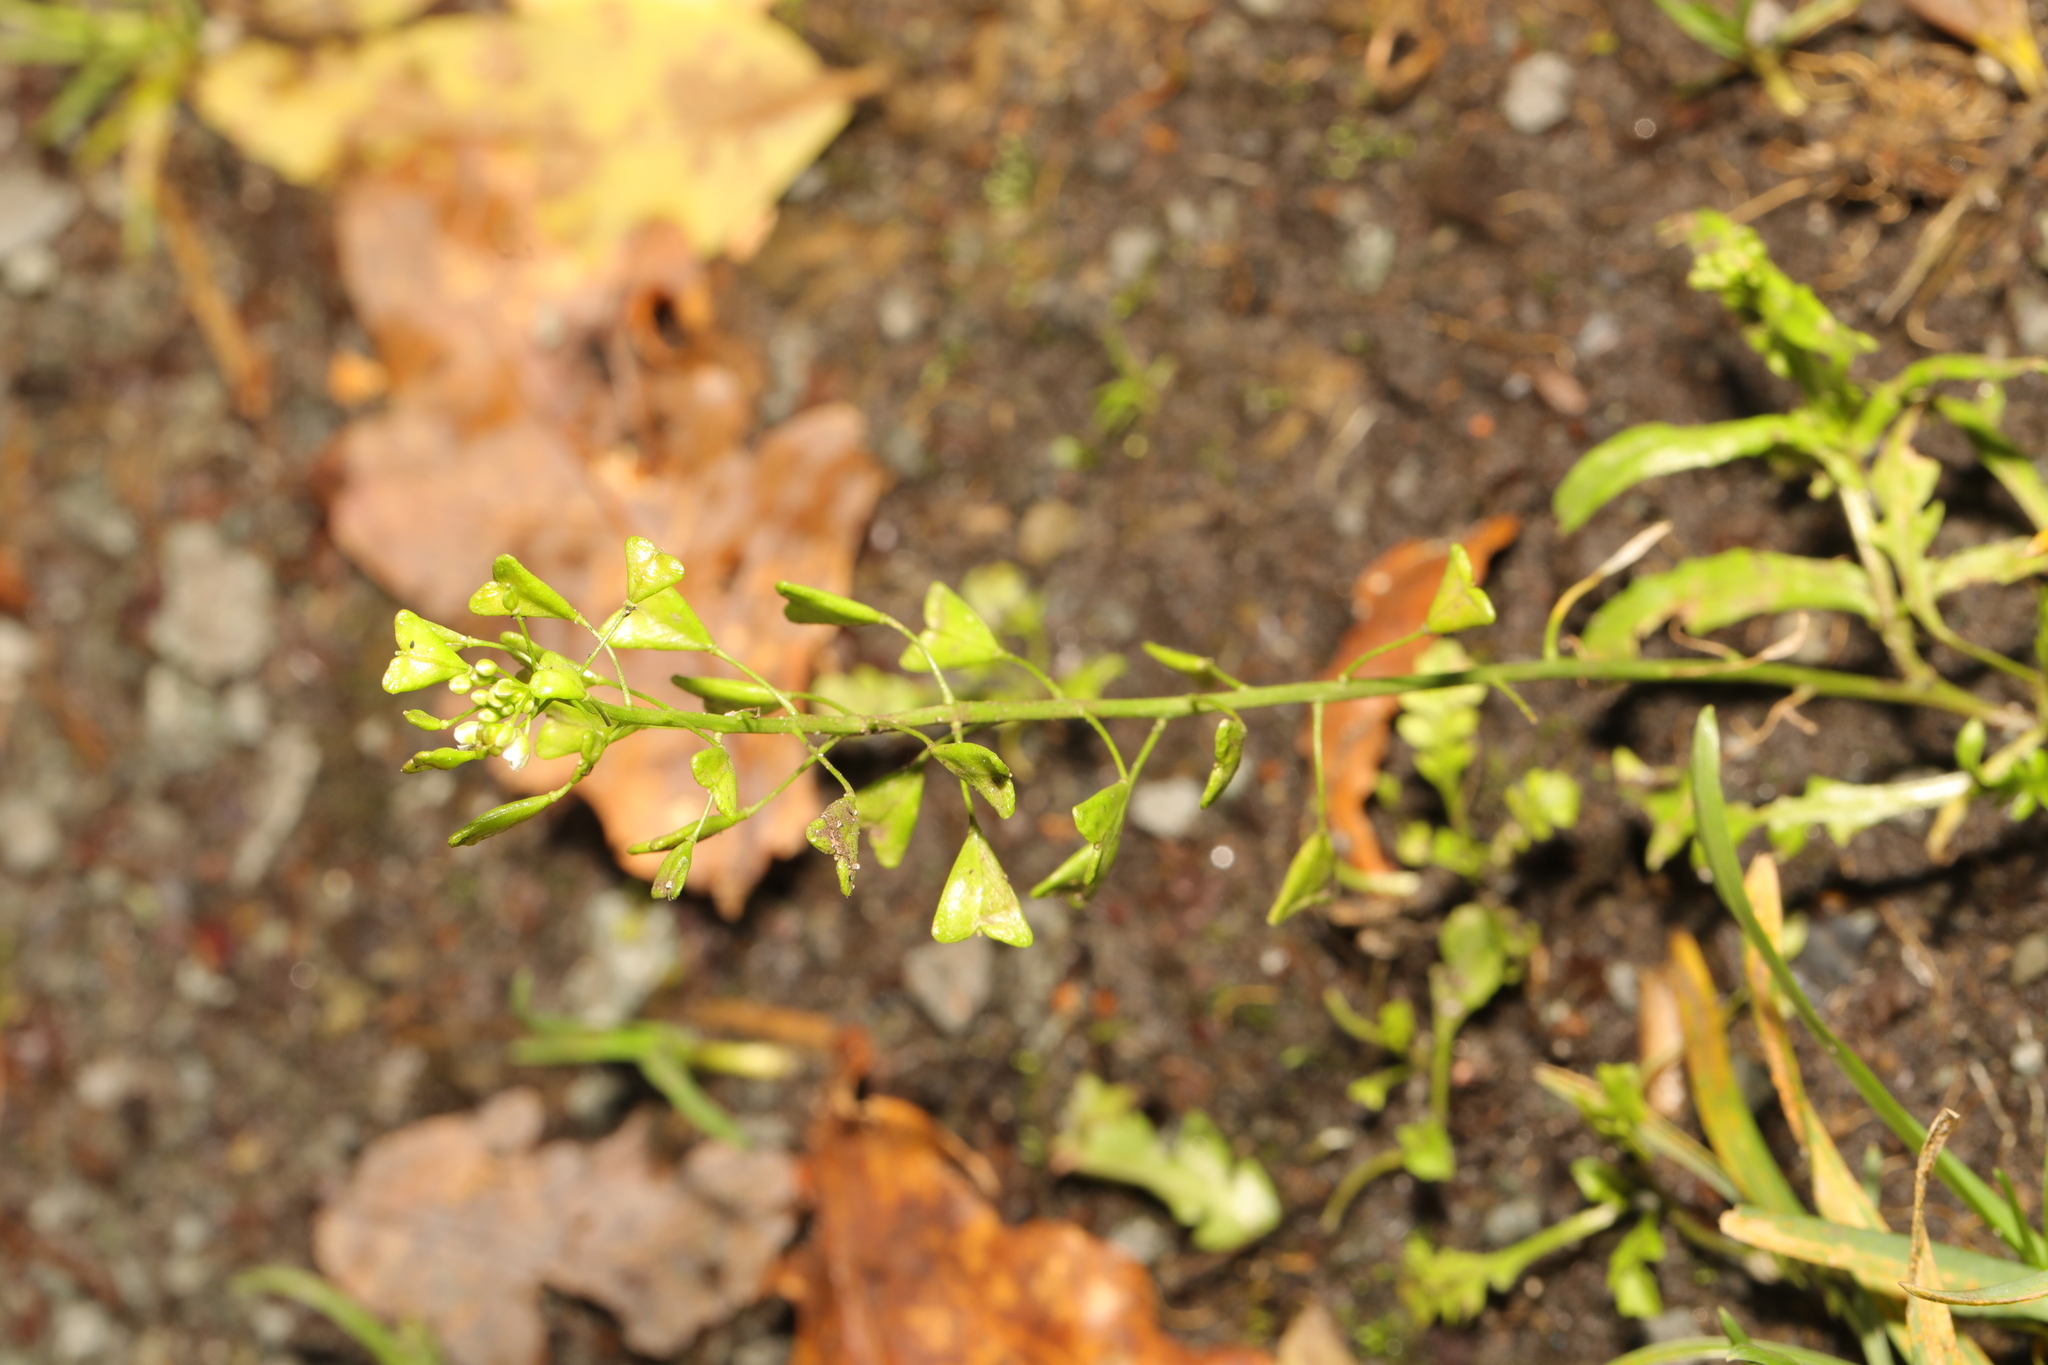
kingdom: Plantae
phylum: Tracheophyta
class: Magnoliopsida
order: Brassicales
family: Brassicaceae
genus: Capsella
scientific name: Capsella bursa-pastoris
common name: Shepherd's purse
